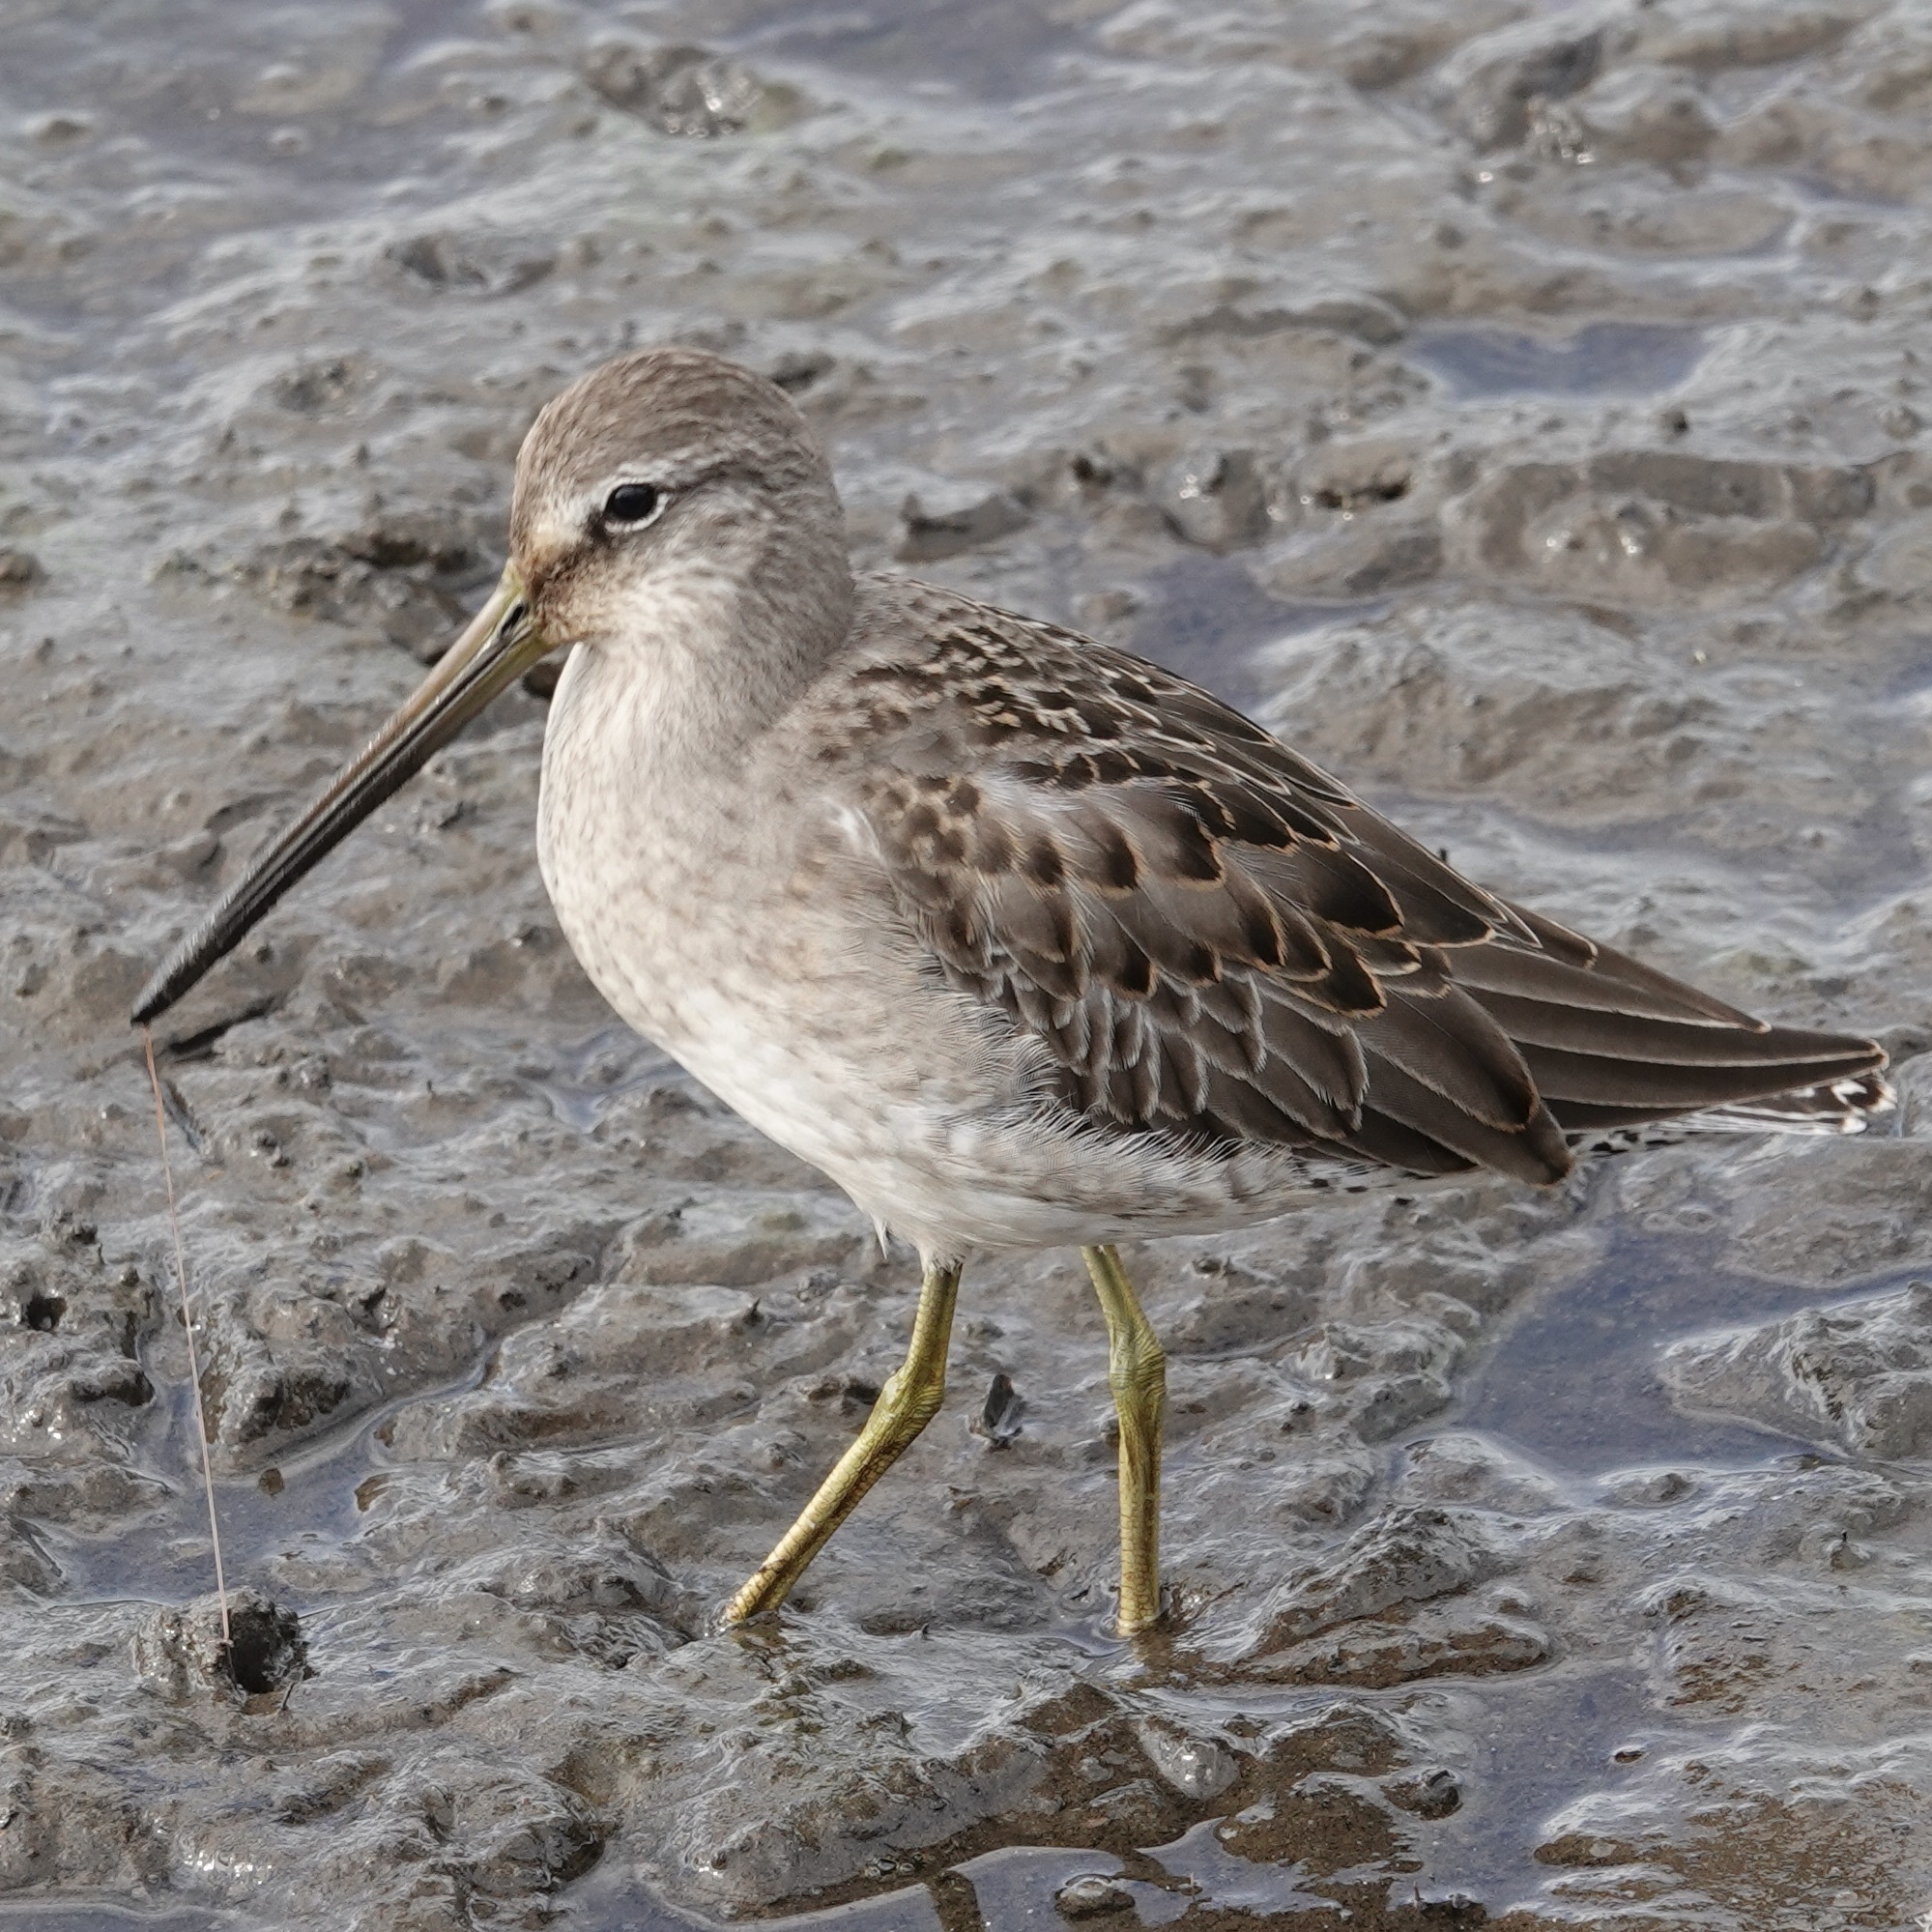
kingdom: Animalia
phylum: Chordata
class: Aves
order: Charadriiformes
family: Scolopacidae
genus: Limnodromus
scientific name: Limnodromus scolopaceus
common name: Long-billed dowitcher
